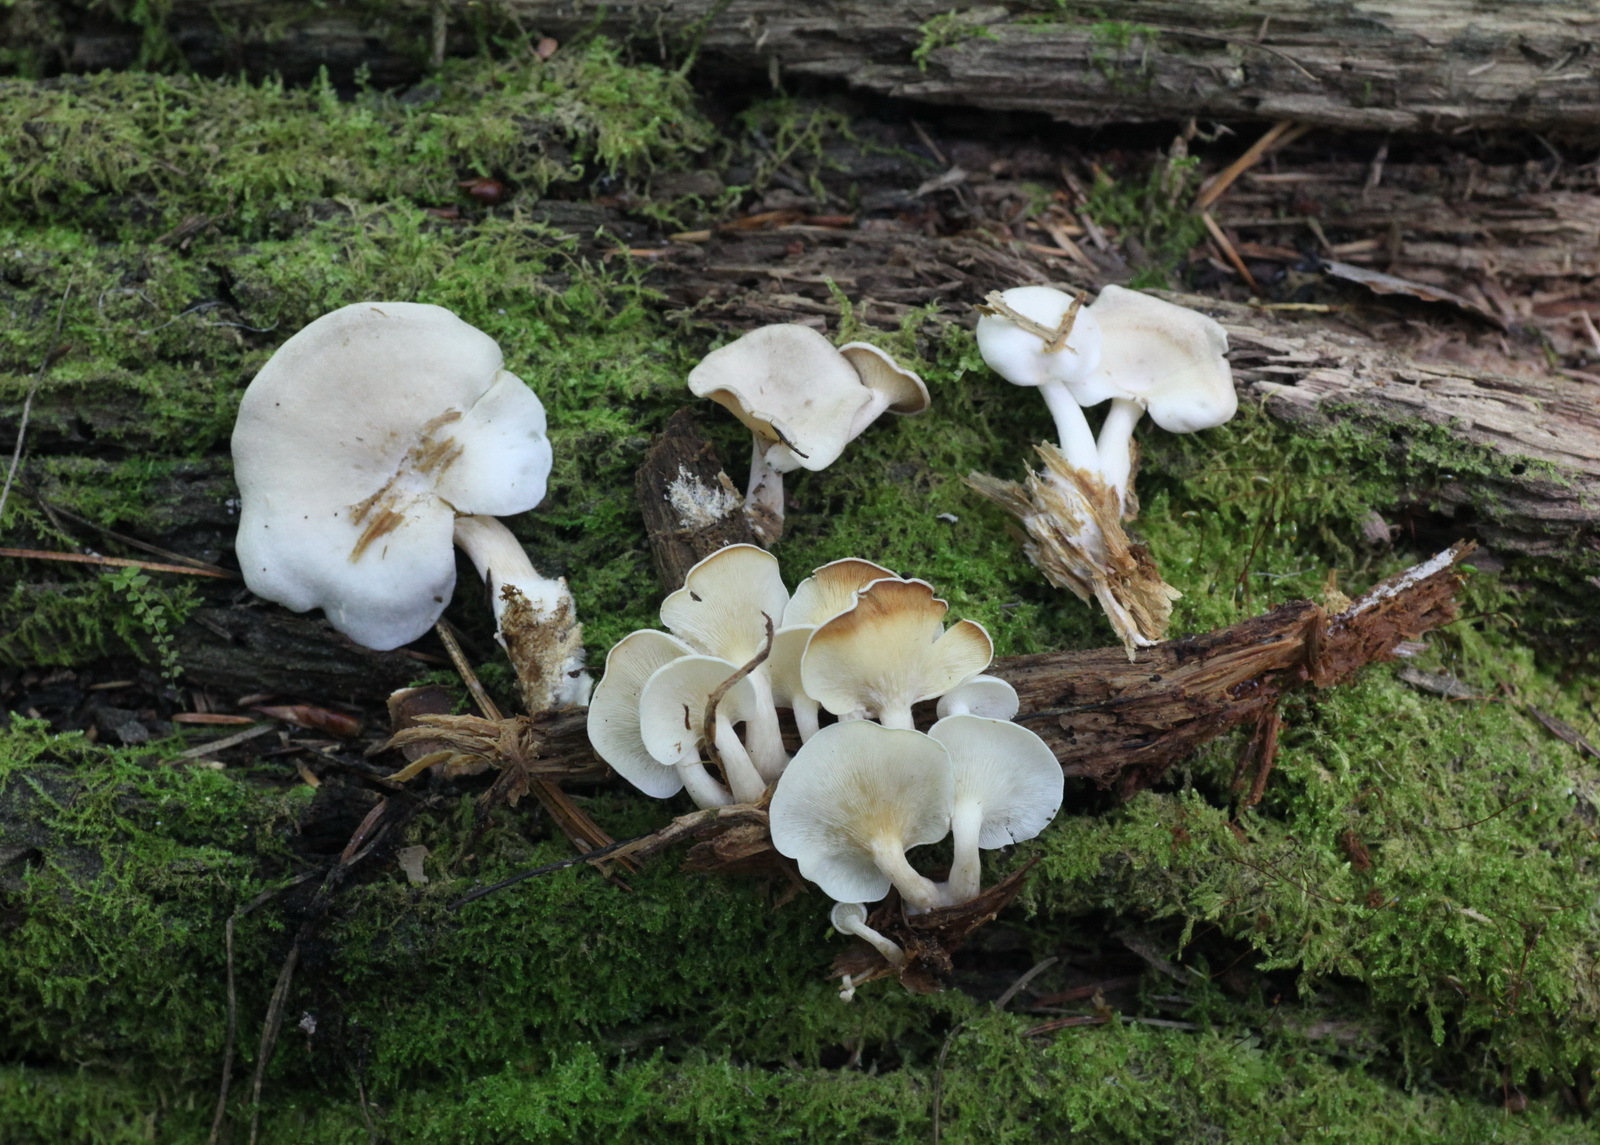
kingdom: Fungi
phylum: Basidiomycota
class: Agaricomycetes
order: Agaricales
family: Lyophyllaceae
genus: Ossicaulis
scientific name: Ossicaulis lignatilis
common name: Mealy oyster
